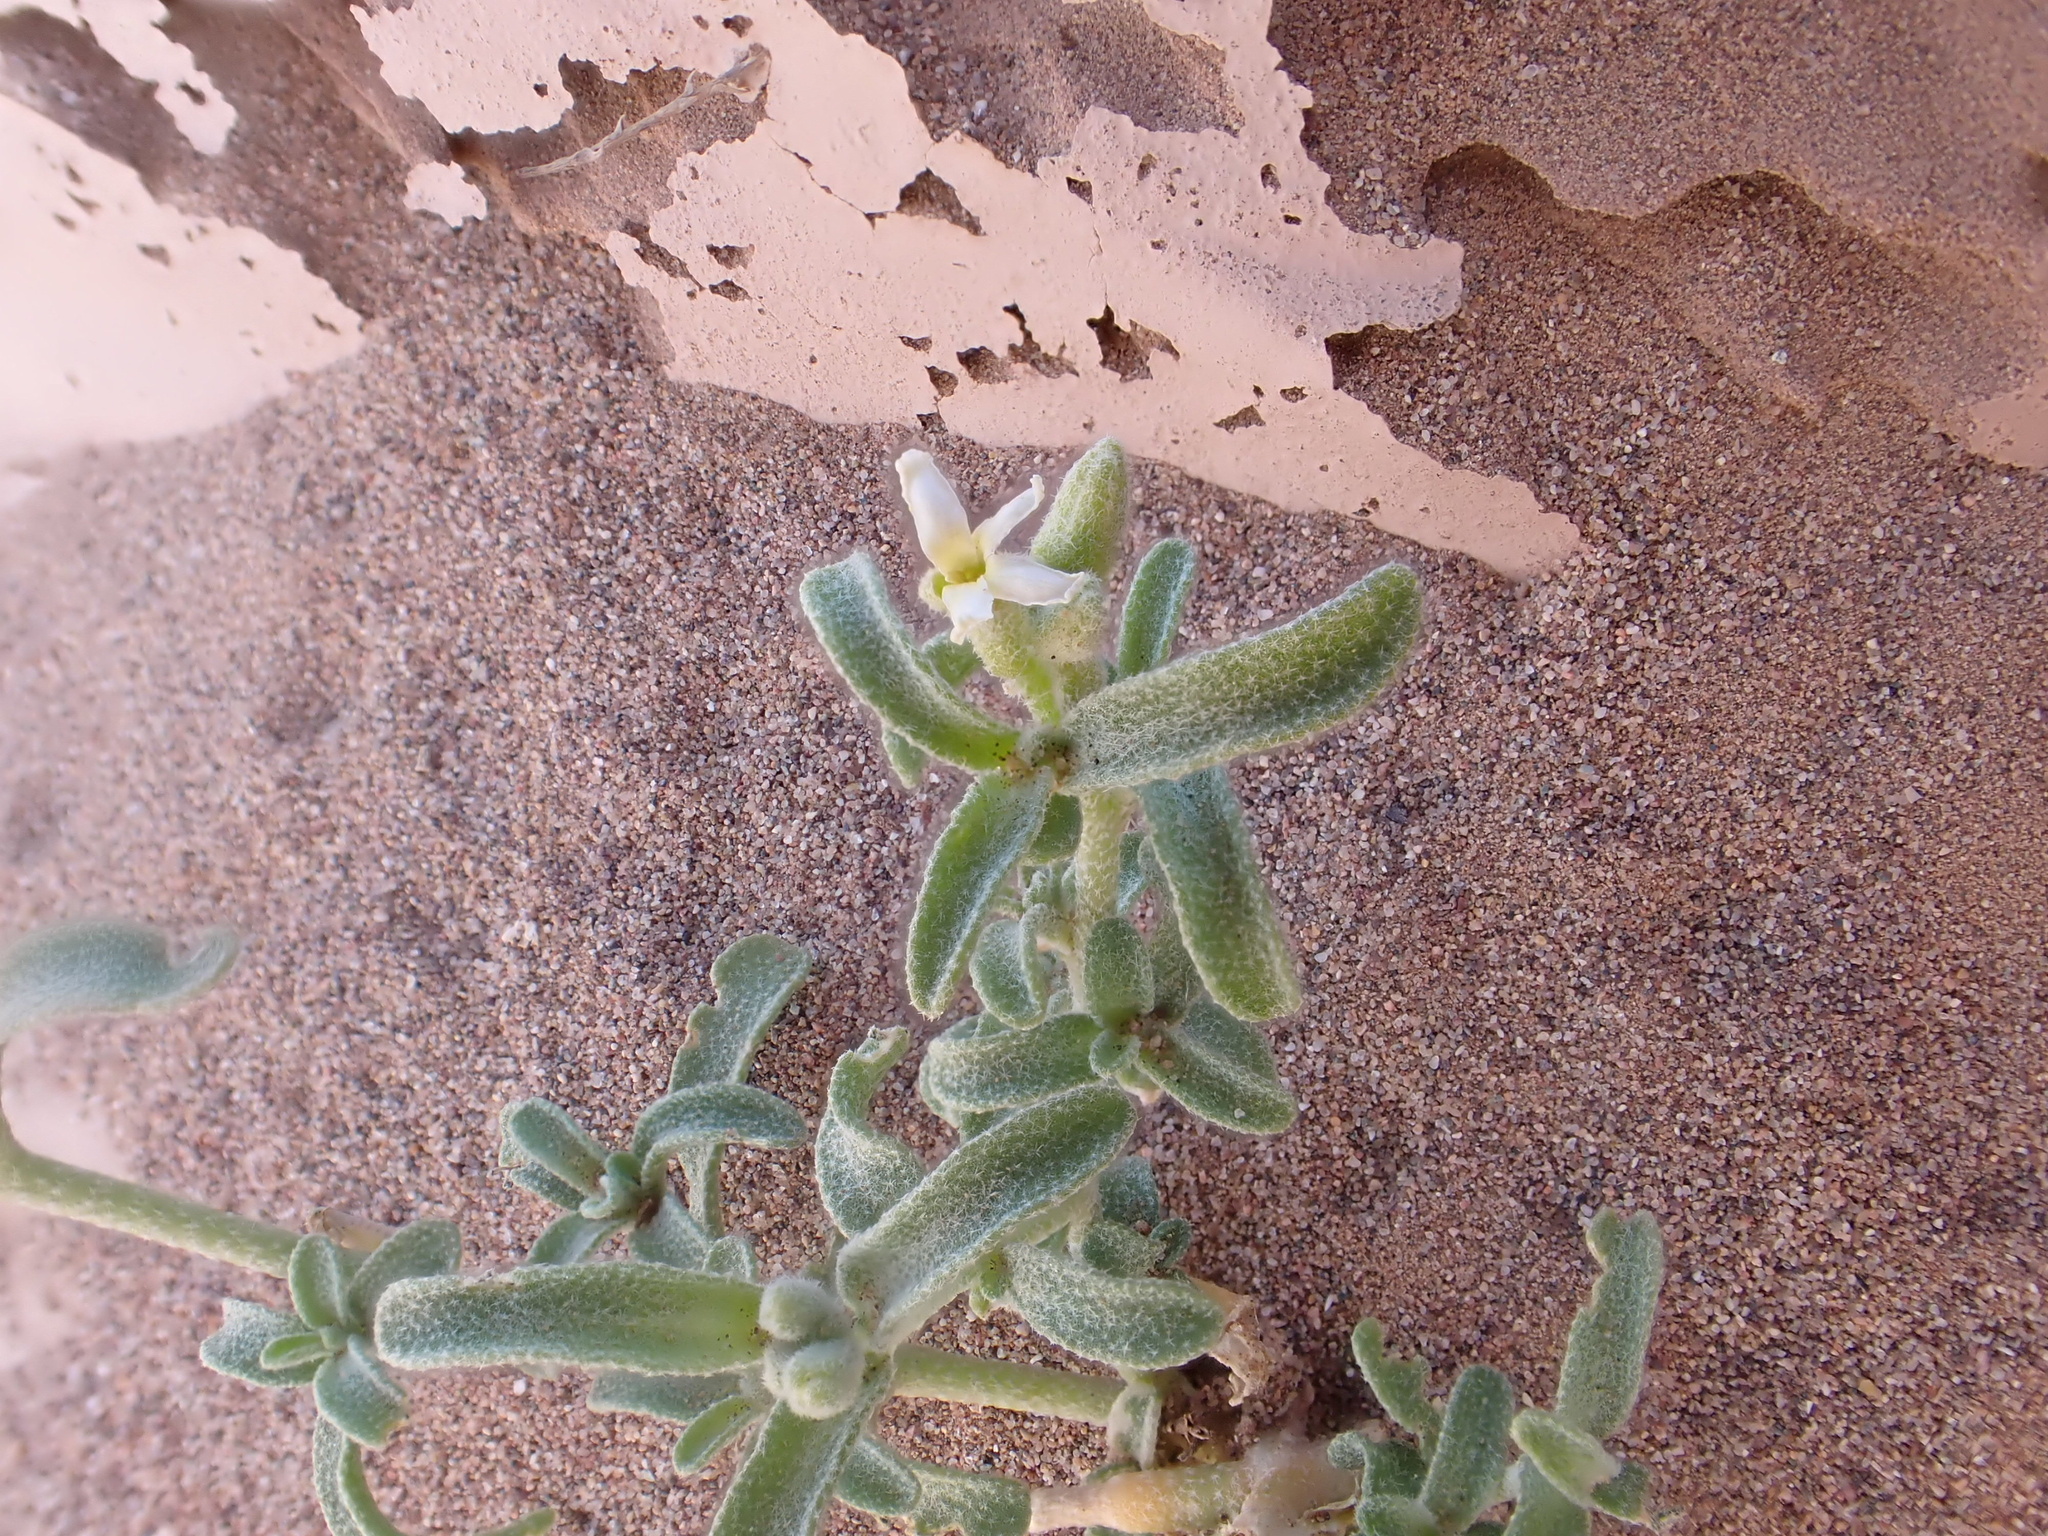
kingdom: Plantae
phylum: Tracheophyta
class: Magnoliopsida
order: Brassicales
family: Brassicaceae
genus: Morettia
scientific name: Morettia canescens
